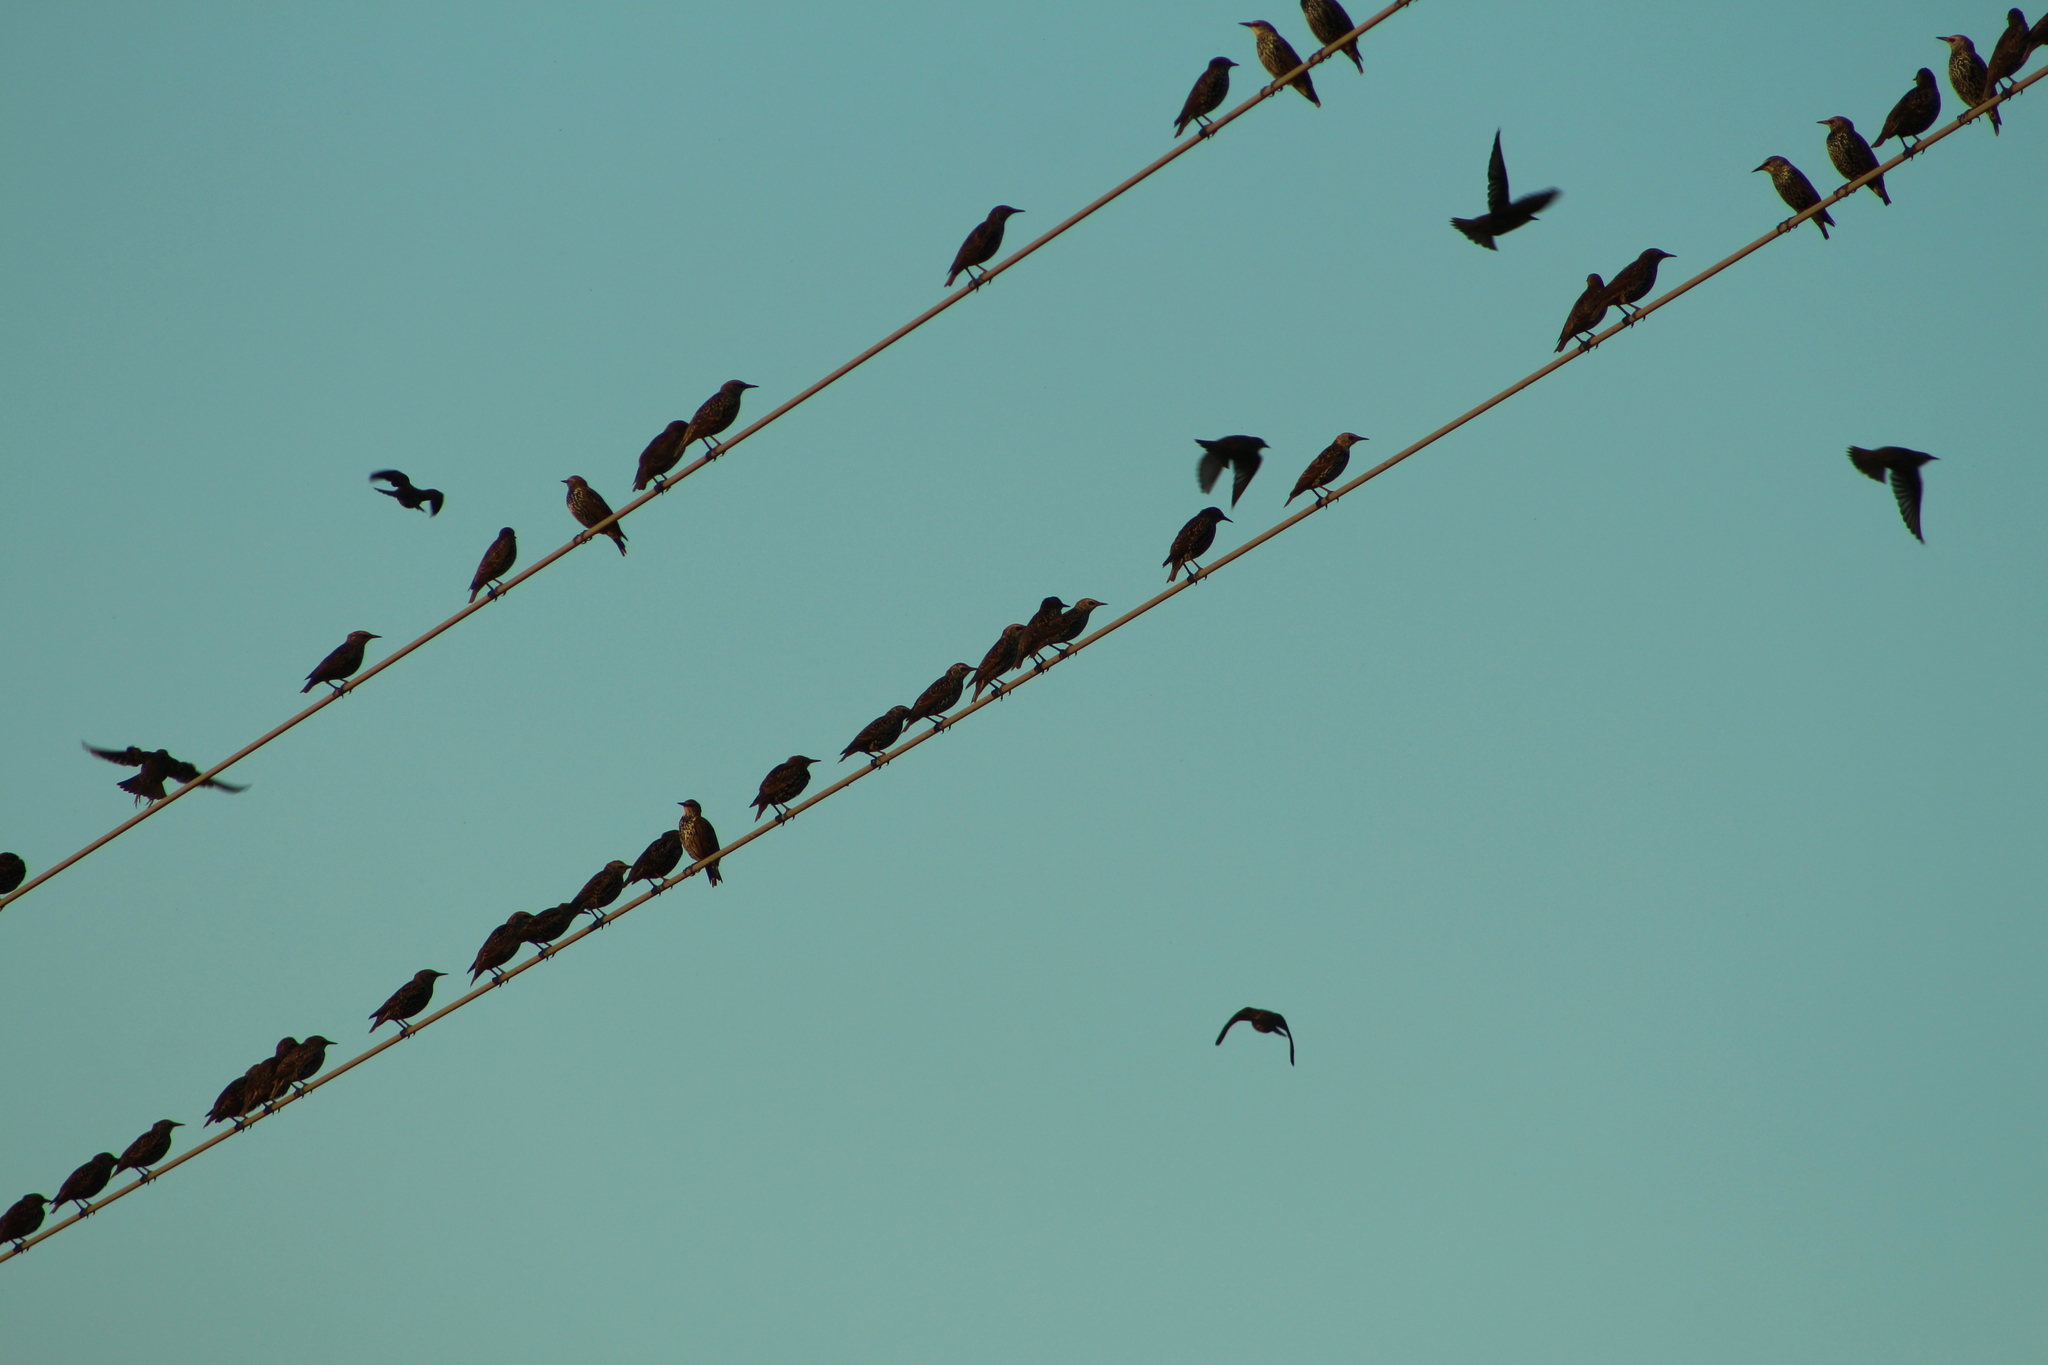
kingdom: Animalia
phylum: Chordata
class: Aves
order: Passeriformes
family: Sturnidae
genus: Sturnus
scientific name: Sturnus vulgaris
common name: Common starling
